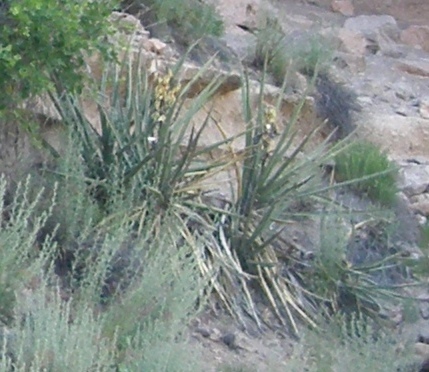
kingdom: Plantae
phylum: Tracheophyta
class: Liliopsida
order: Asparagales
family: Asparagaceae
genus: Yucca
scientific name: Yucca baccata
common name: Banana yucca
